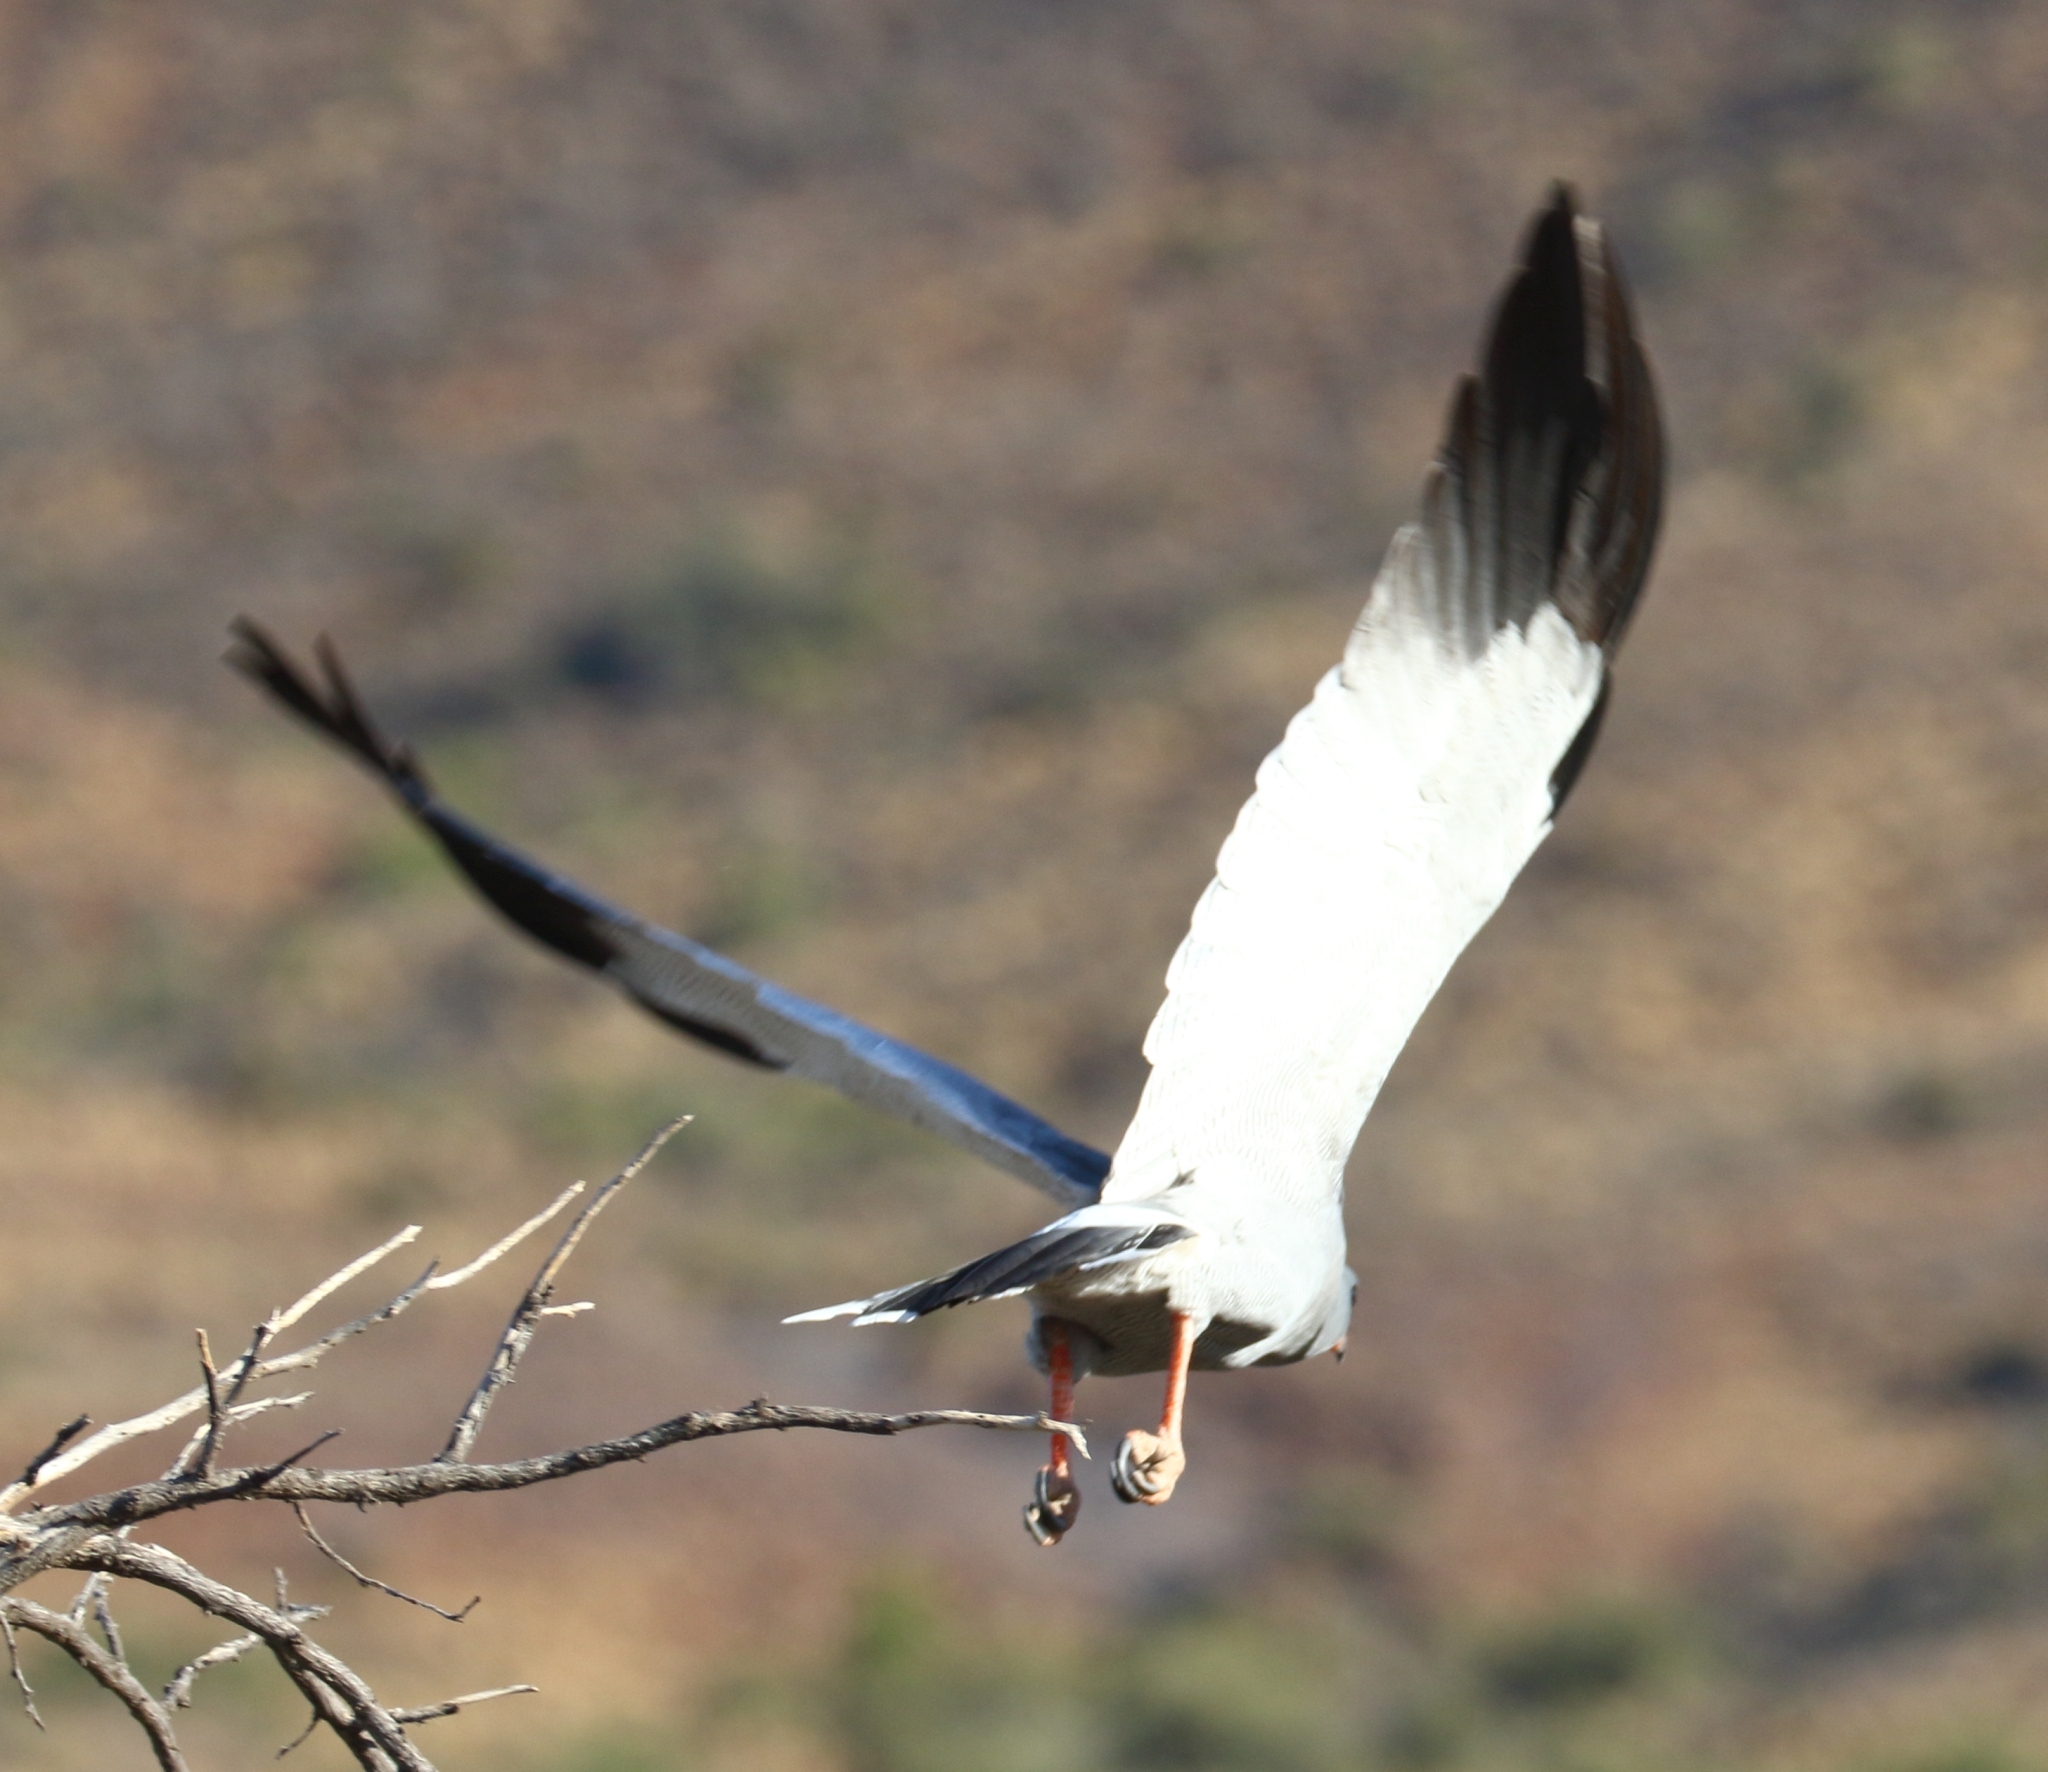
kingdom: Animalia
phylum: Chordata
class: Aves
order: Accipitriformes
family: Accipitridae
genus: Melierax
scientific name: Melierax canorus
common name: Pale chanting-goshawk
